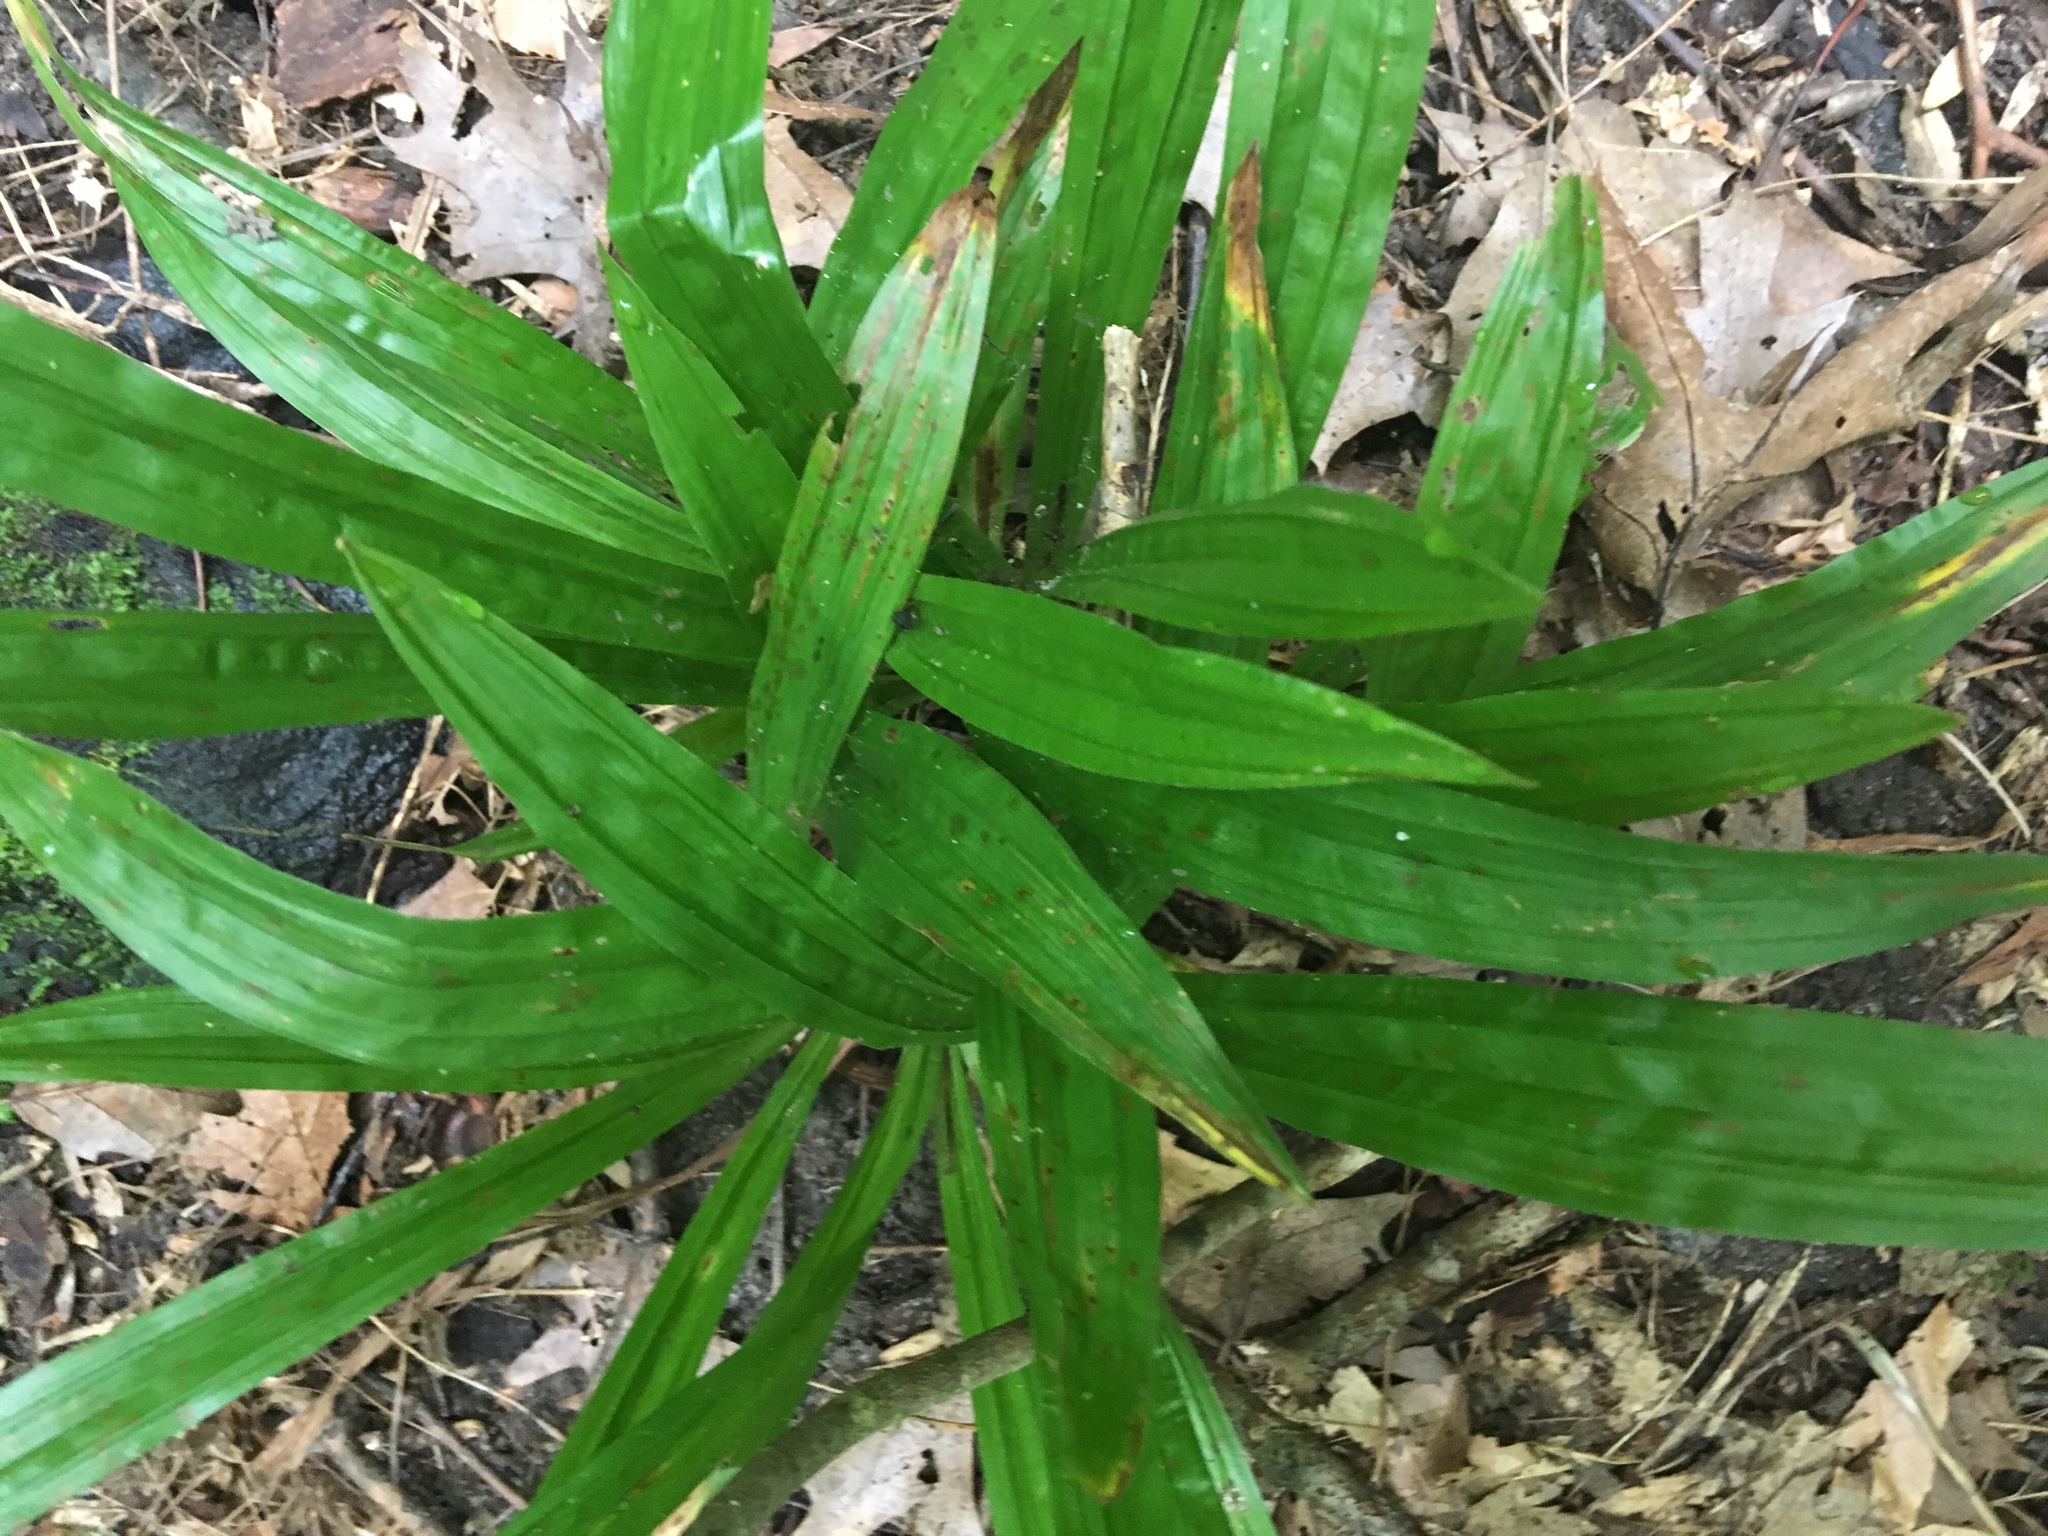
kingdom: Plantae
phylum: Tracheophyta
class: Liliopsida
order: Poales
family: Cyperaceae
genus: Carex
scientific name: Carex plantaginea
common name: Plantain-leaved sedge
